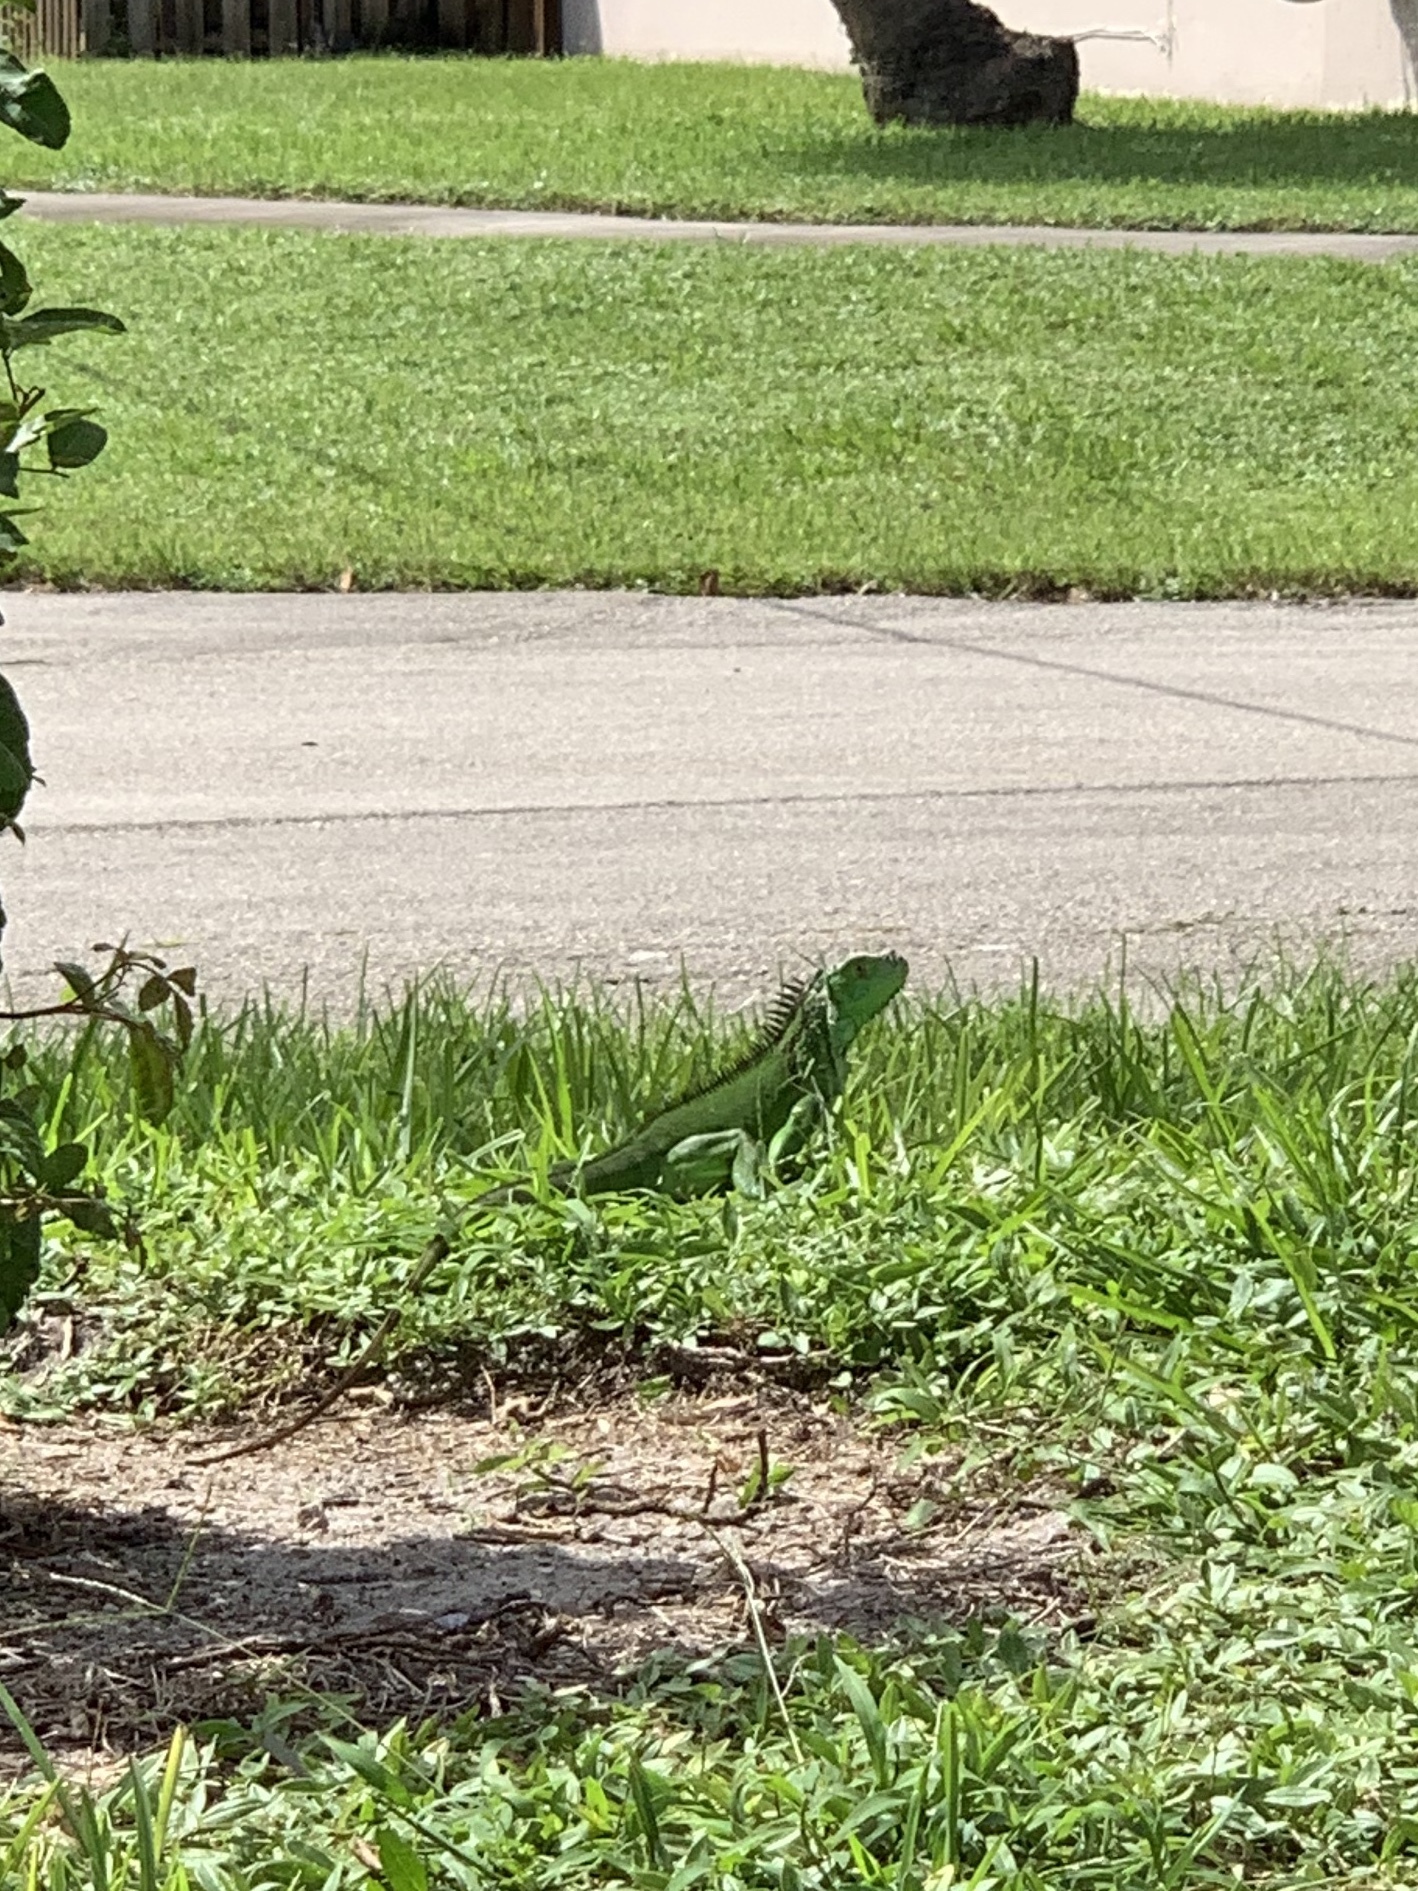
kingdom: Animalia
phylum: Chordata
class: Squamata
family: Iguanidae
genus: Iguana
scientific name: Iguana iguana
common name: Green iguana
